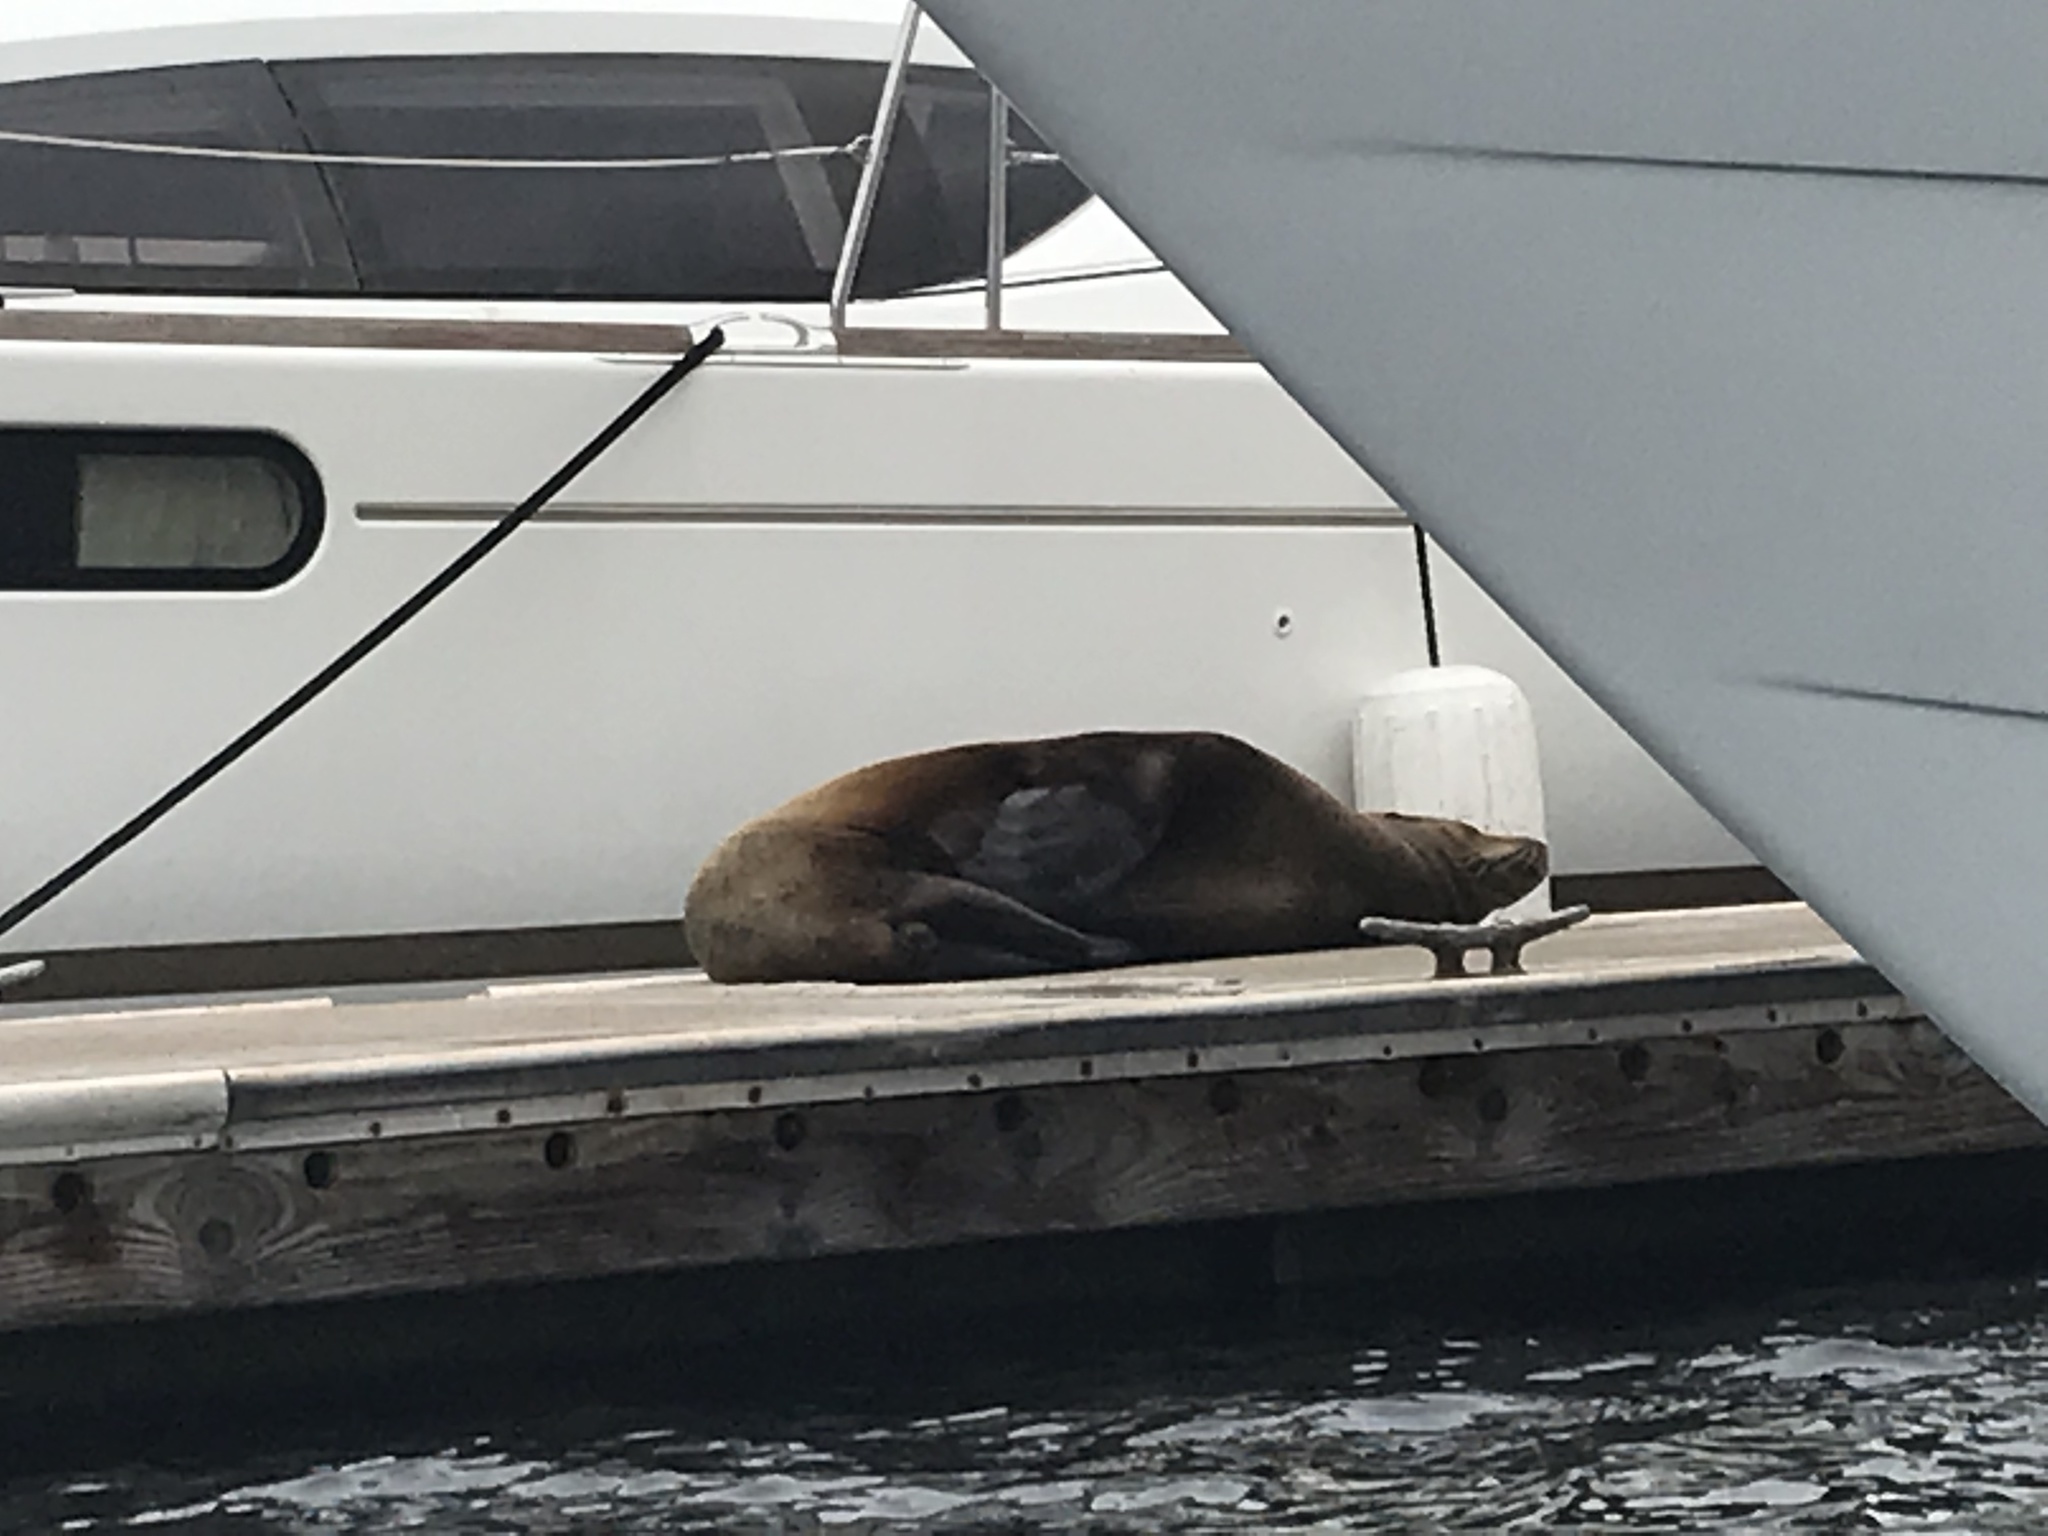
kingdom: Animalia
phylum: Chordata
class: Mammalia
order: Carnivora
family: Otariidae
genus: Zalophus
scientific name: Zalophus californianus
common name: California sea lion
